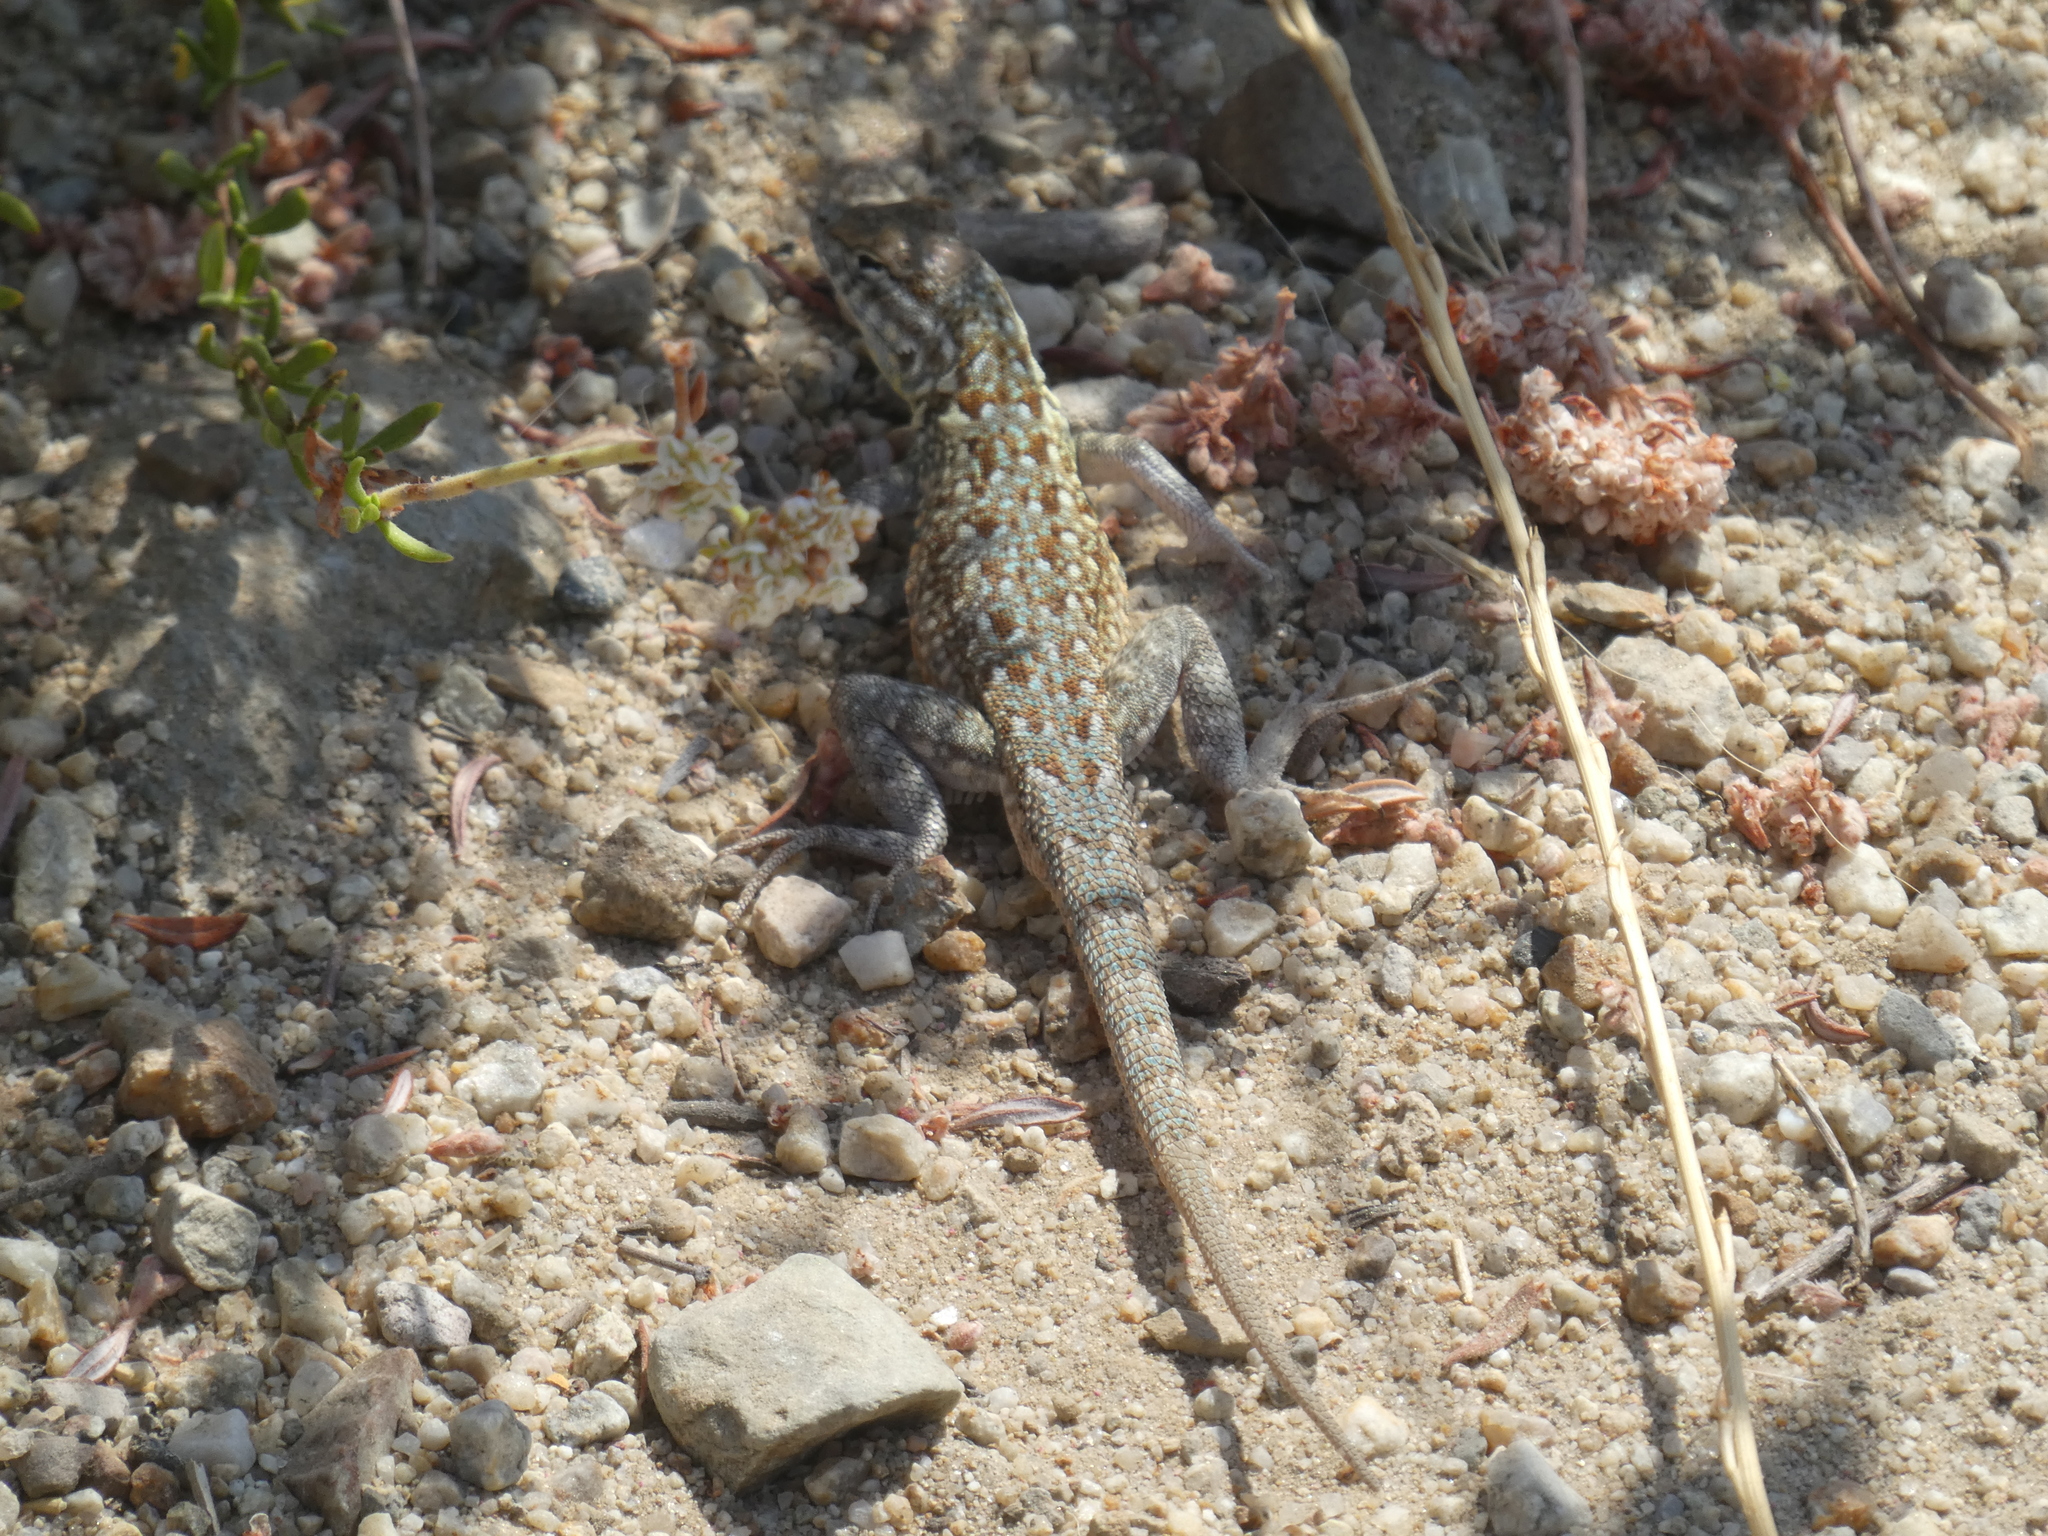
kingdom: Animalia
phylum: Chordata
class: Squamata
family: Phrynosomatidae
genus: Uta
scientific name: Uta stansburiana
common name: Side-blotched lizard
